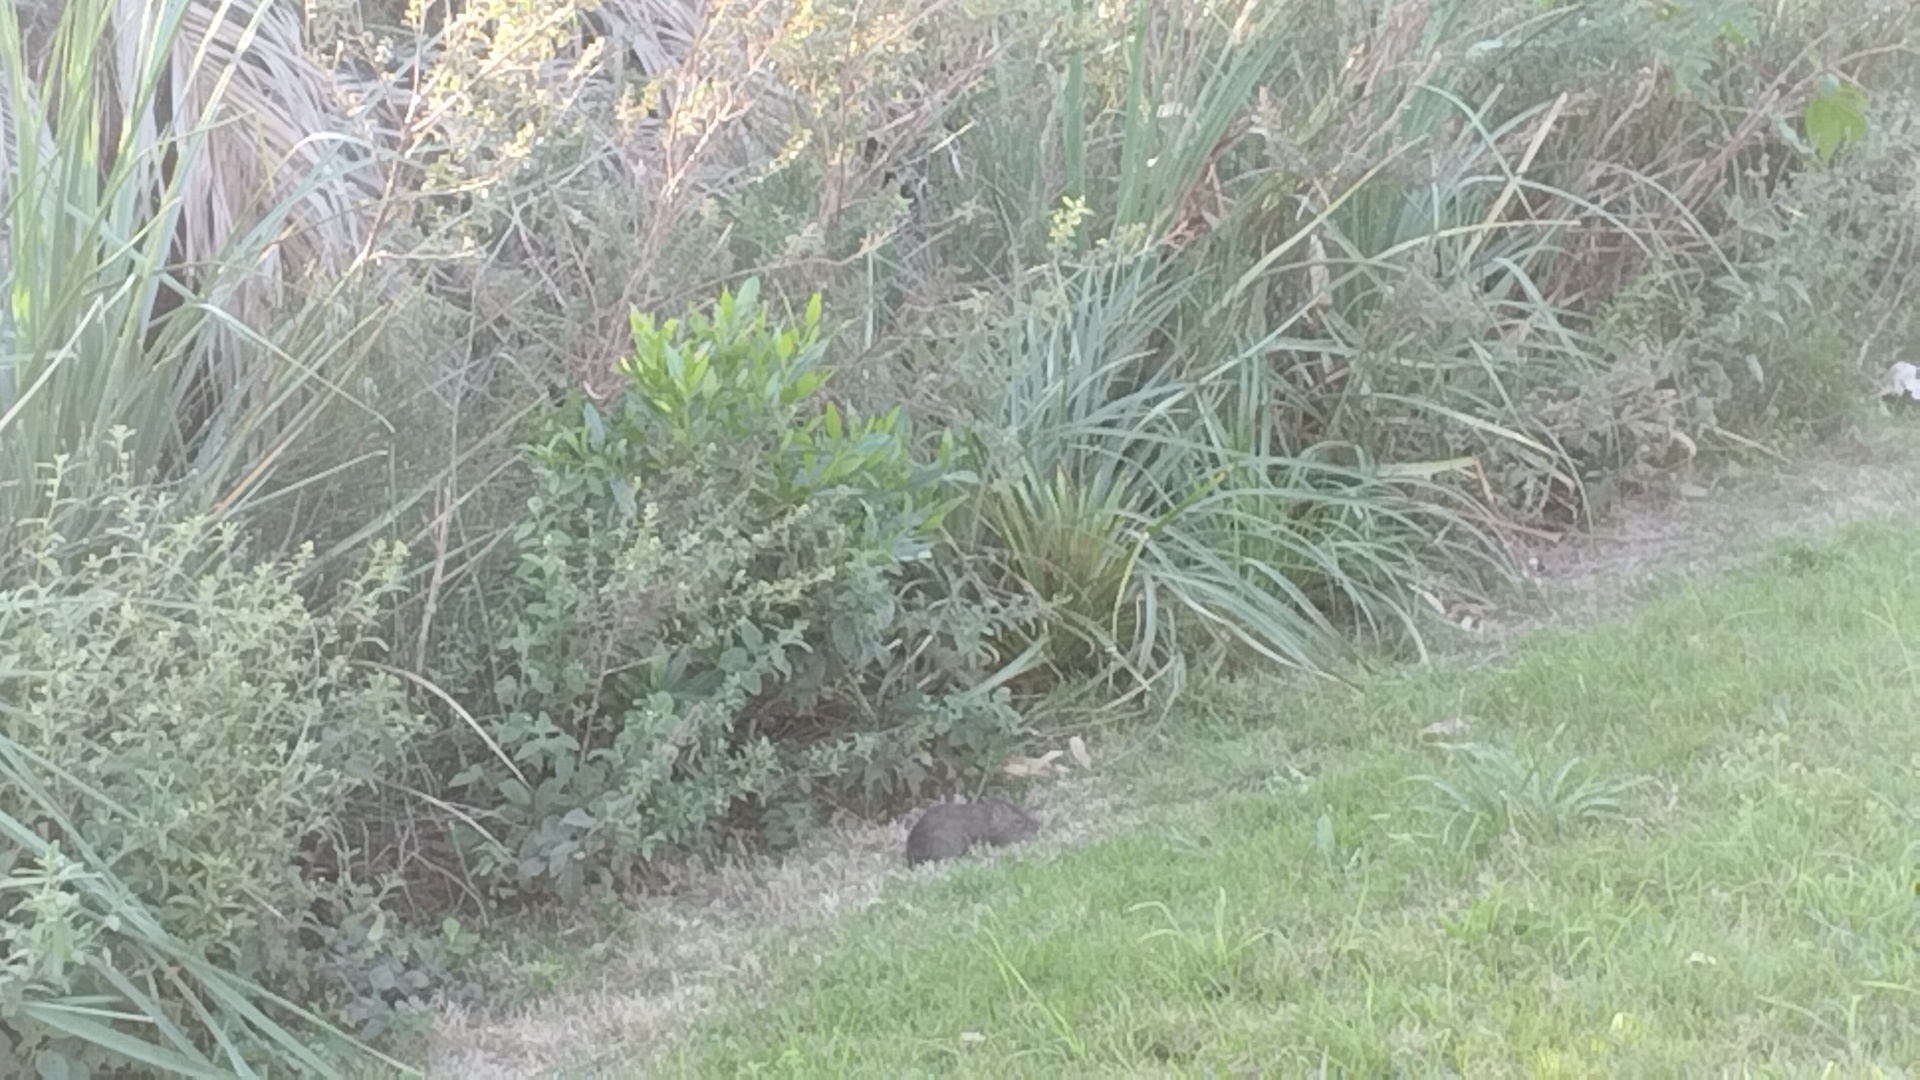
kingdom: Animalia
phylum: Chordata
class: Mammalia
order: Rodentia
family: Caviidae
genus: Cavia
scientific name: Cavia aperea
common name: Brazilian guinea pig
